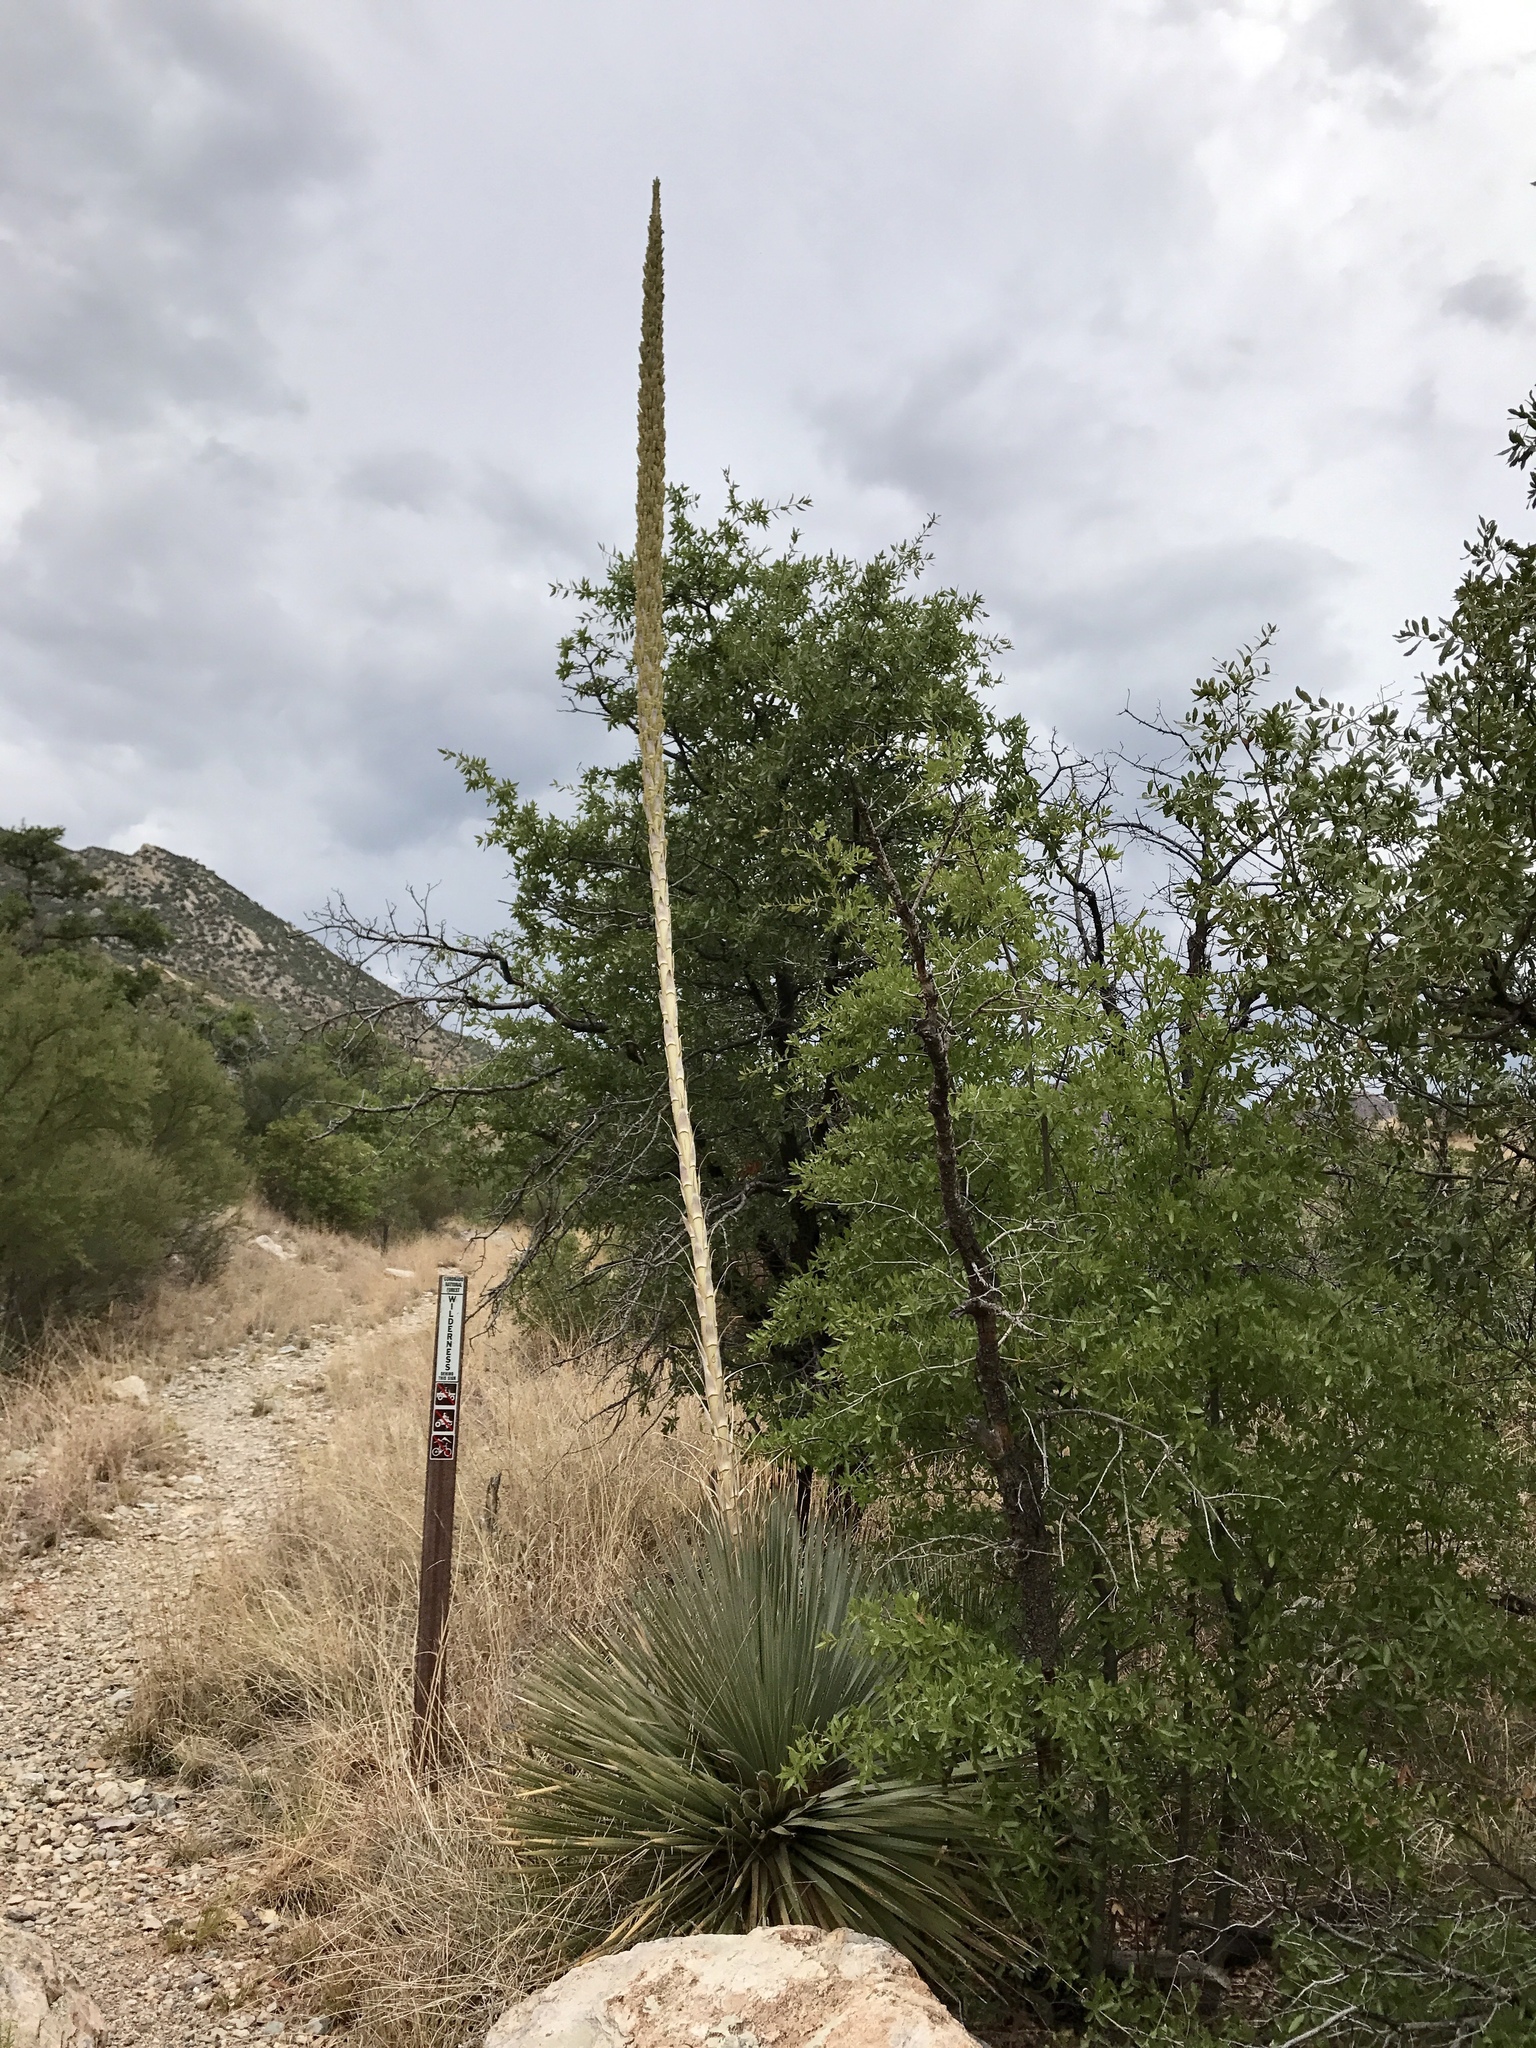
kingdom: Plantae
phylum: Tracheophyta
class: Liliopsida
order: Asparagales
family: Asparagaceae
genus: Dasylirion
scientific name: Dasylirion wheeleri
